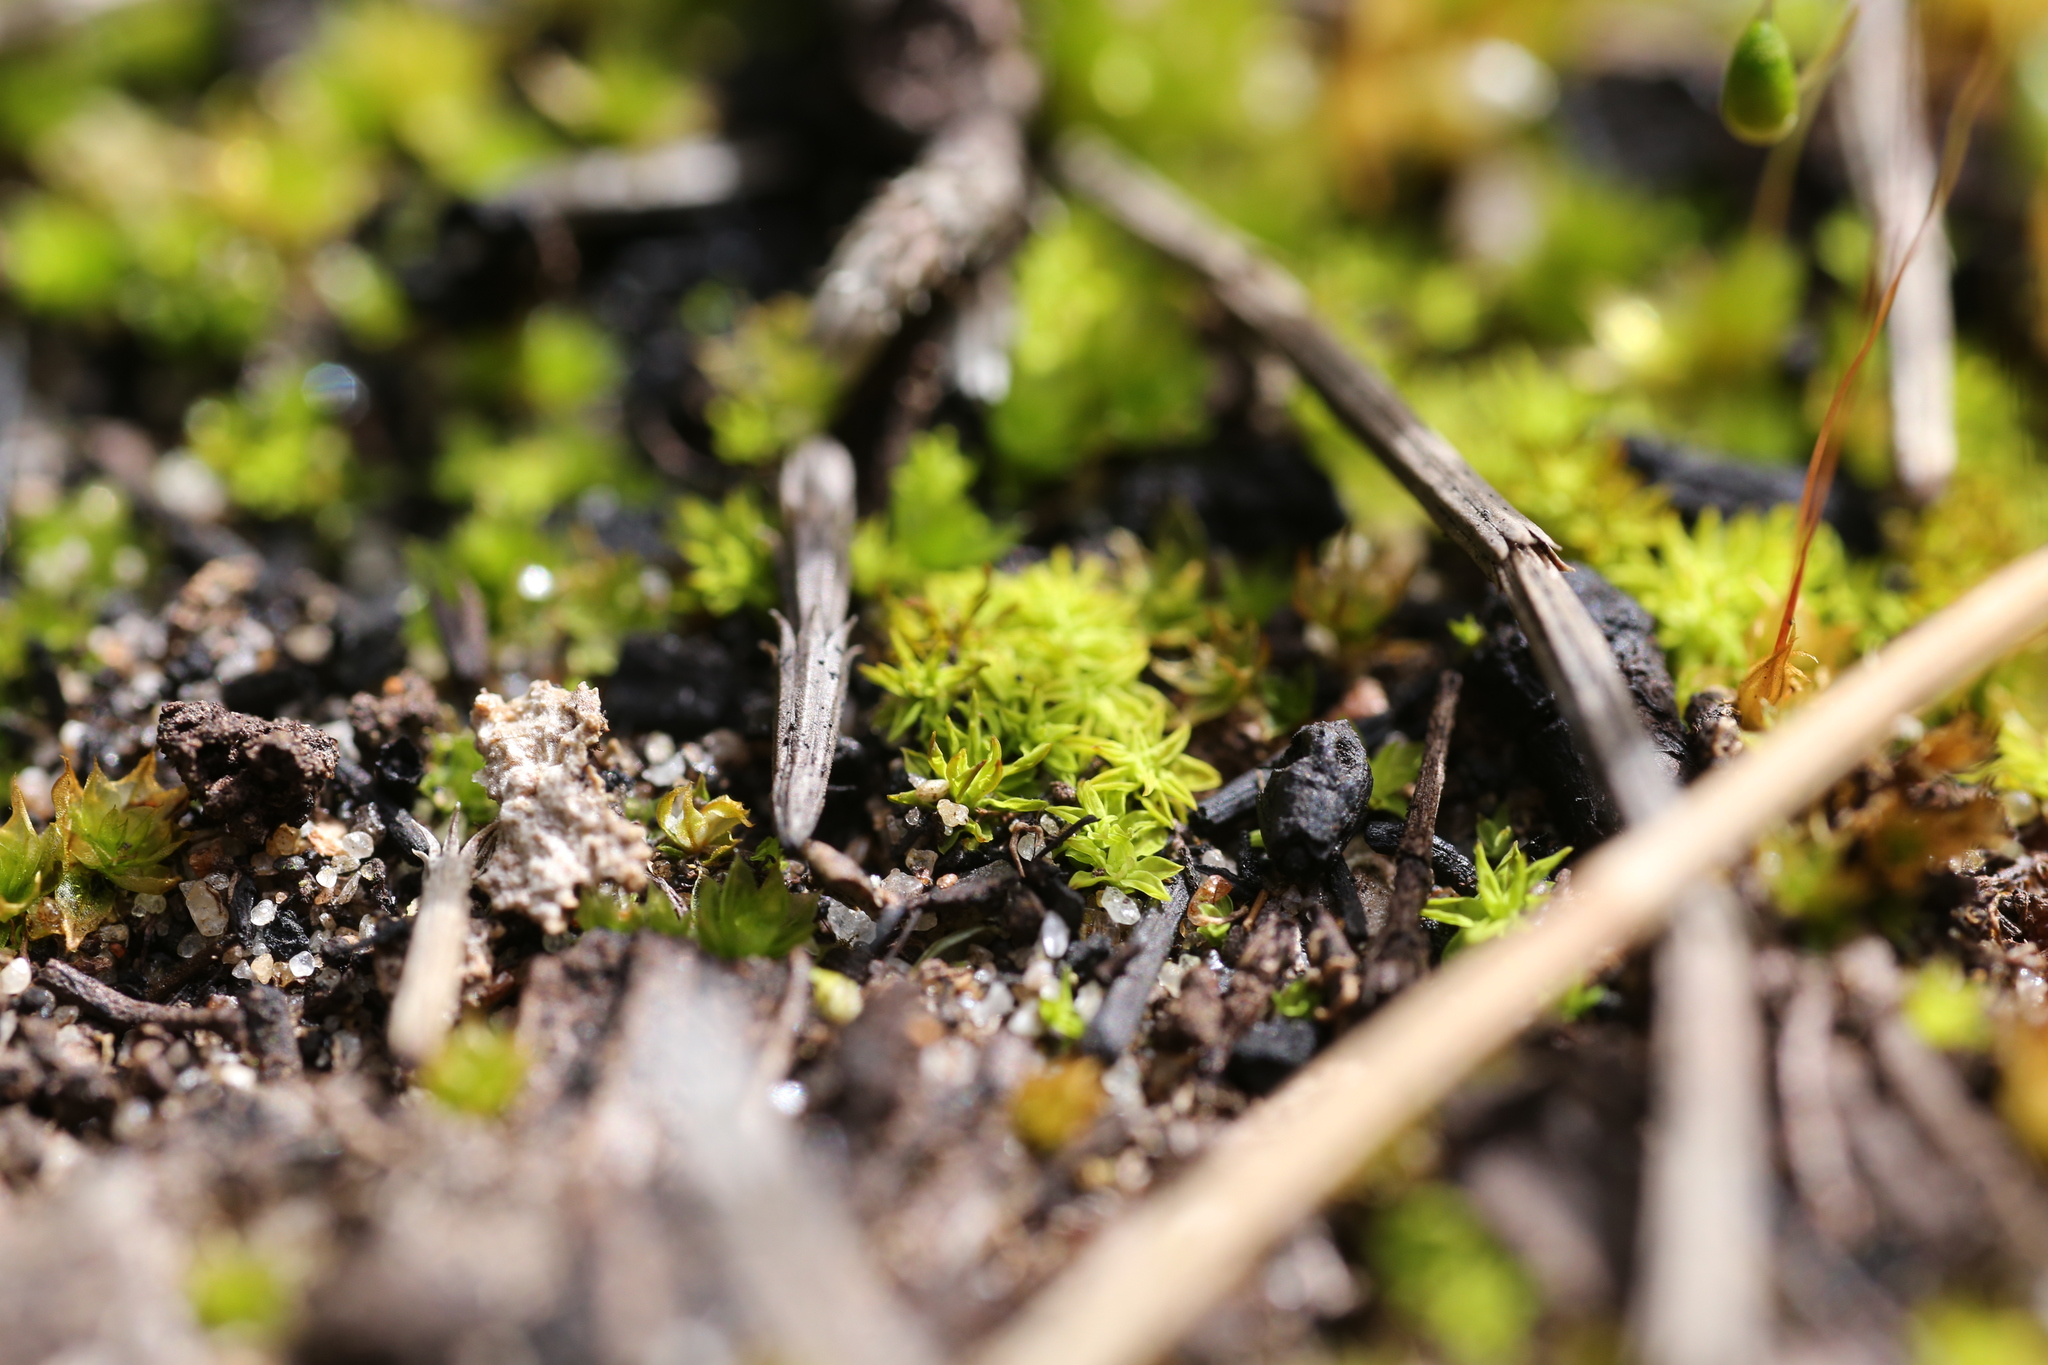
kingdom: Plantae
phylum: Bryophyta
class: Bryopsida
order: Funariales
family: Funariaceae
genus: Funaria
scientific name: Funaria hygrometrica
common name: Common cord moss
